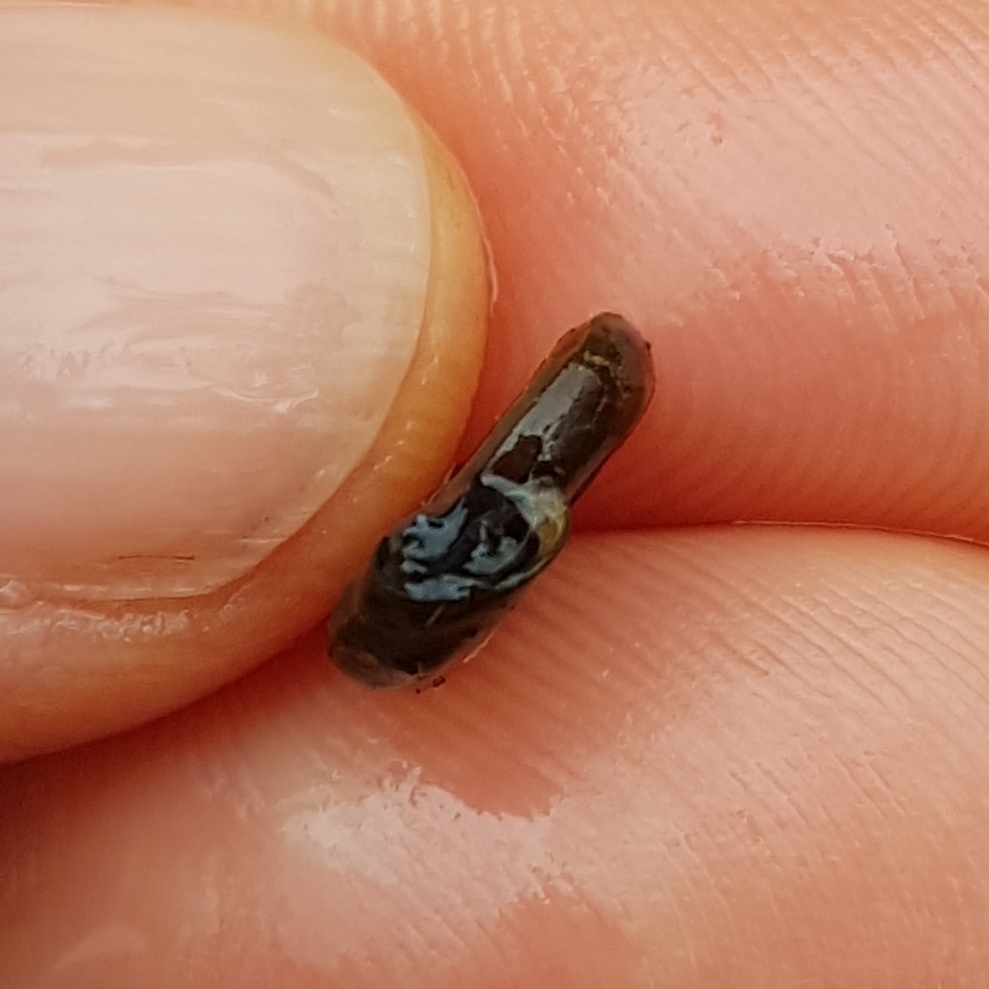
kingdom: Animalia
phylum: Mollusca
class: Gastropoda
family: Planorbidae
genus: Planorbis
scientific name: Planorbis planorbis
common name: Margined ramshorn
